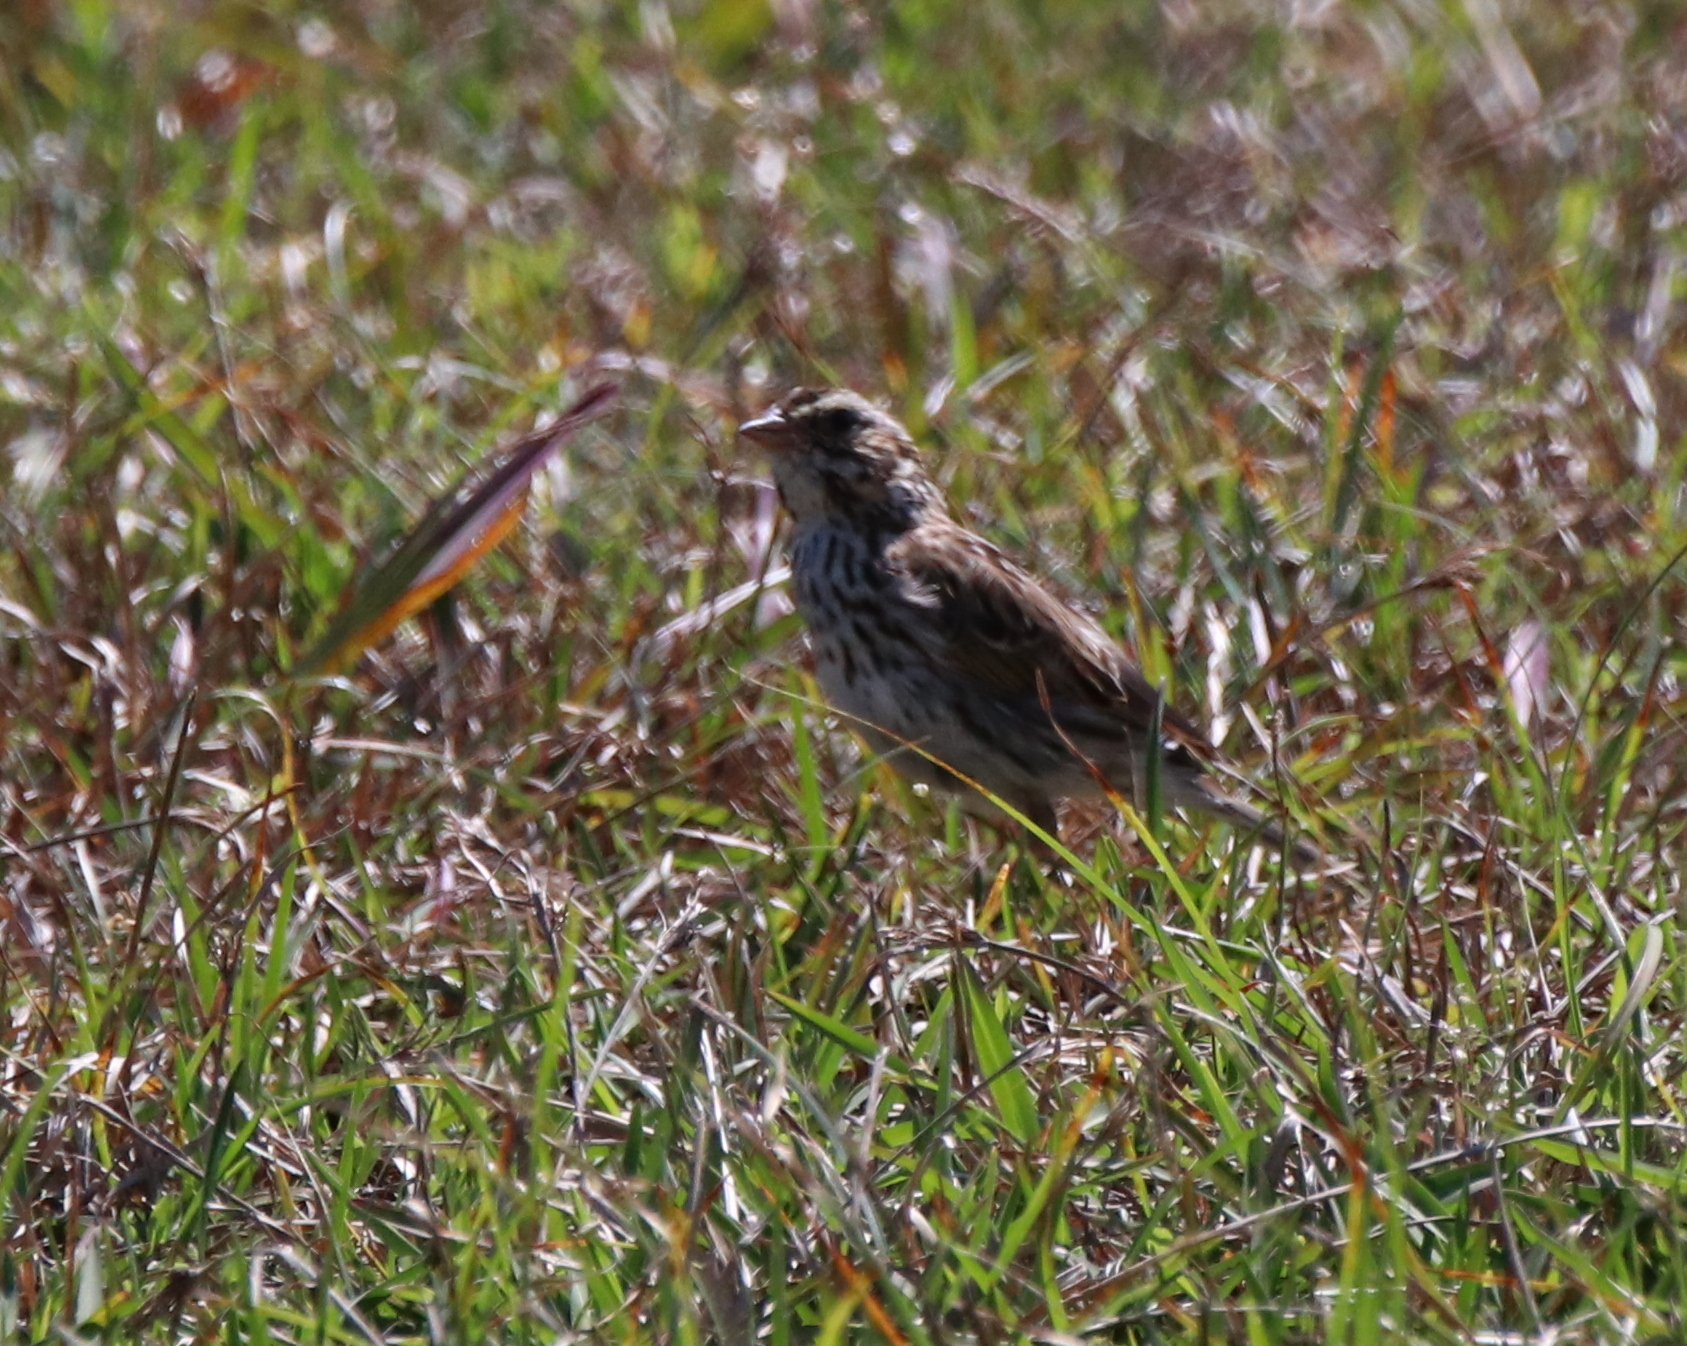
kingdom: Animalia
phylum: Chordata
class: Aves
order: Passeriformes
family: Passerellidae
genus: Passerculus
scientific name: Passerculus sandwichensis
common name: Savannah sparrow
